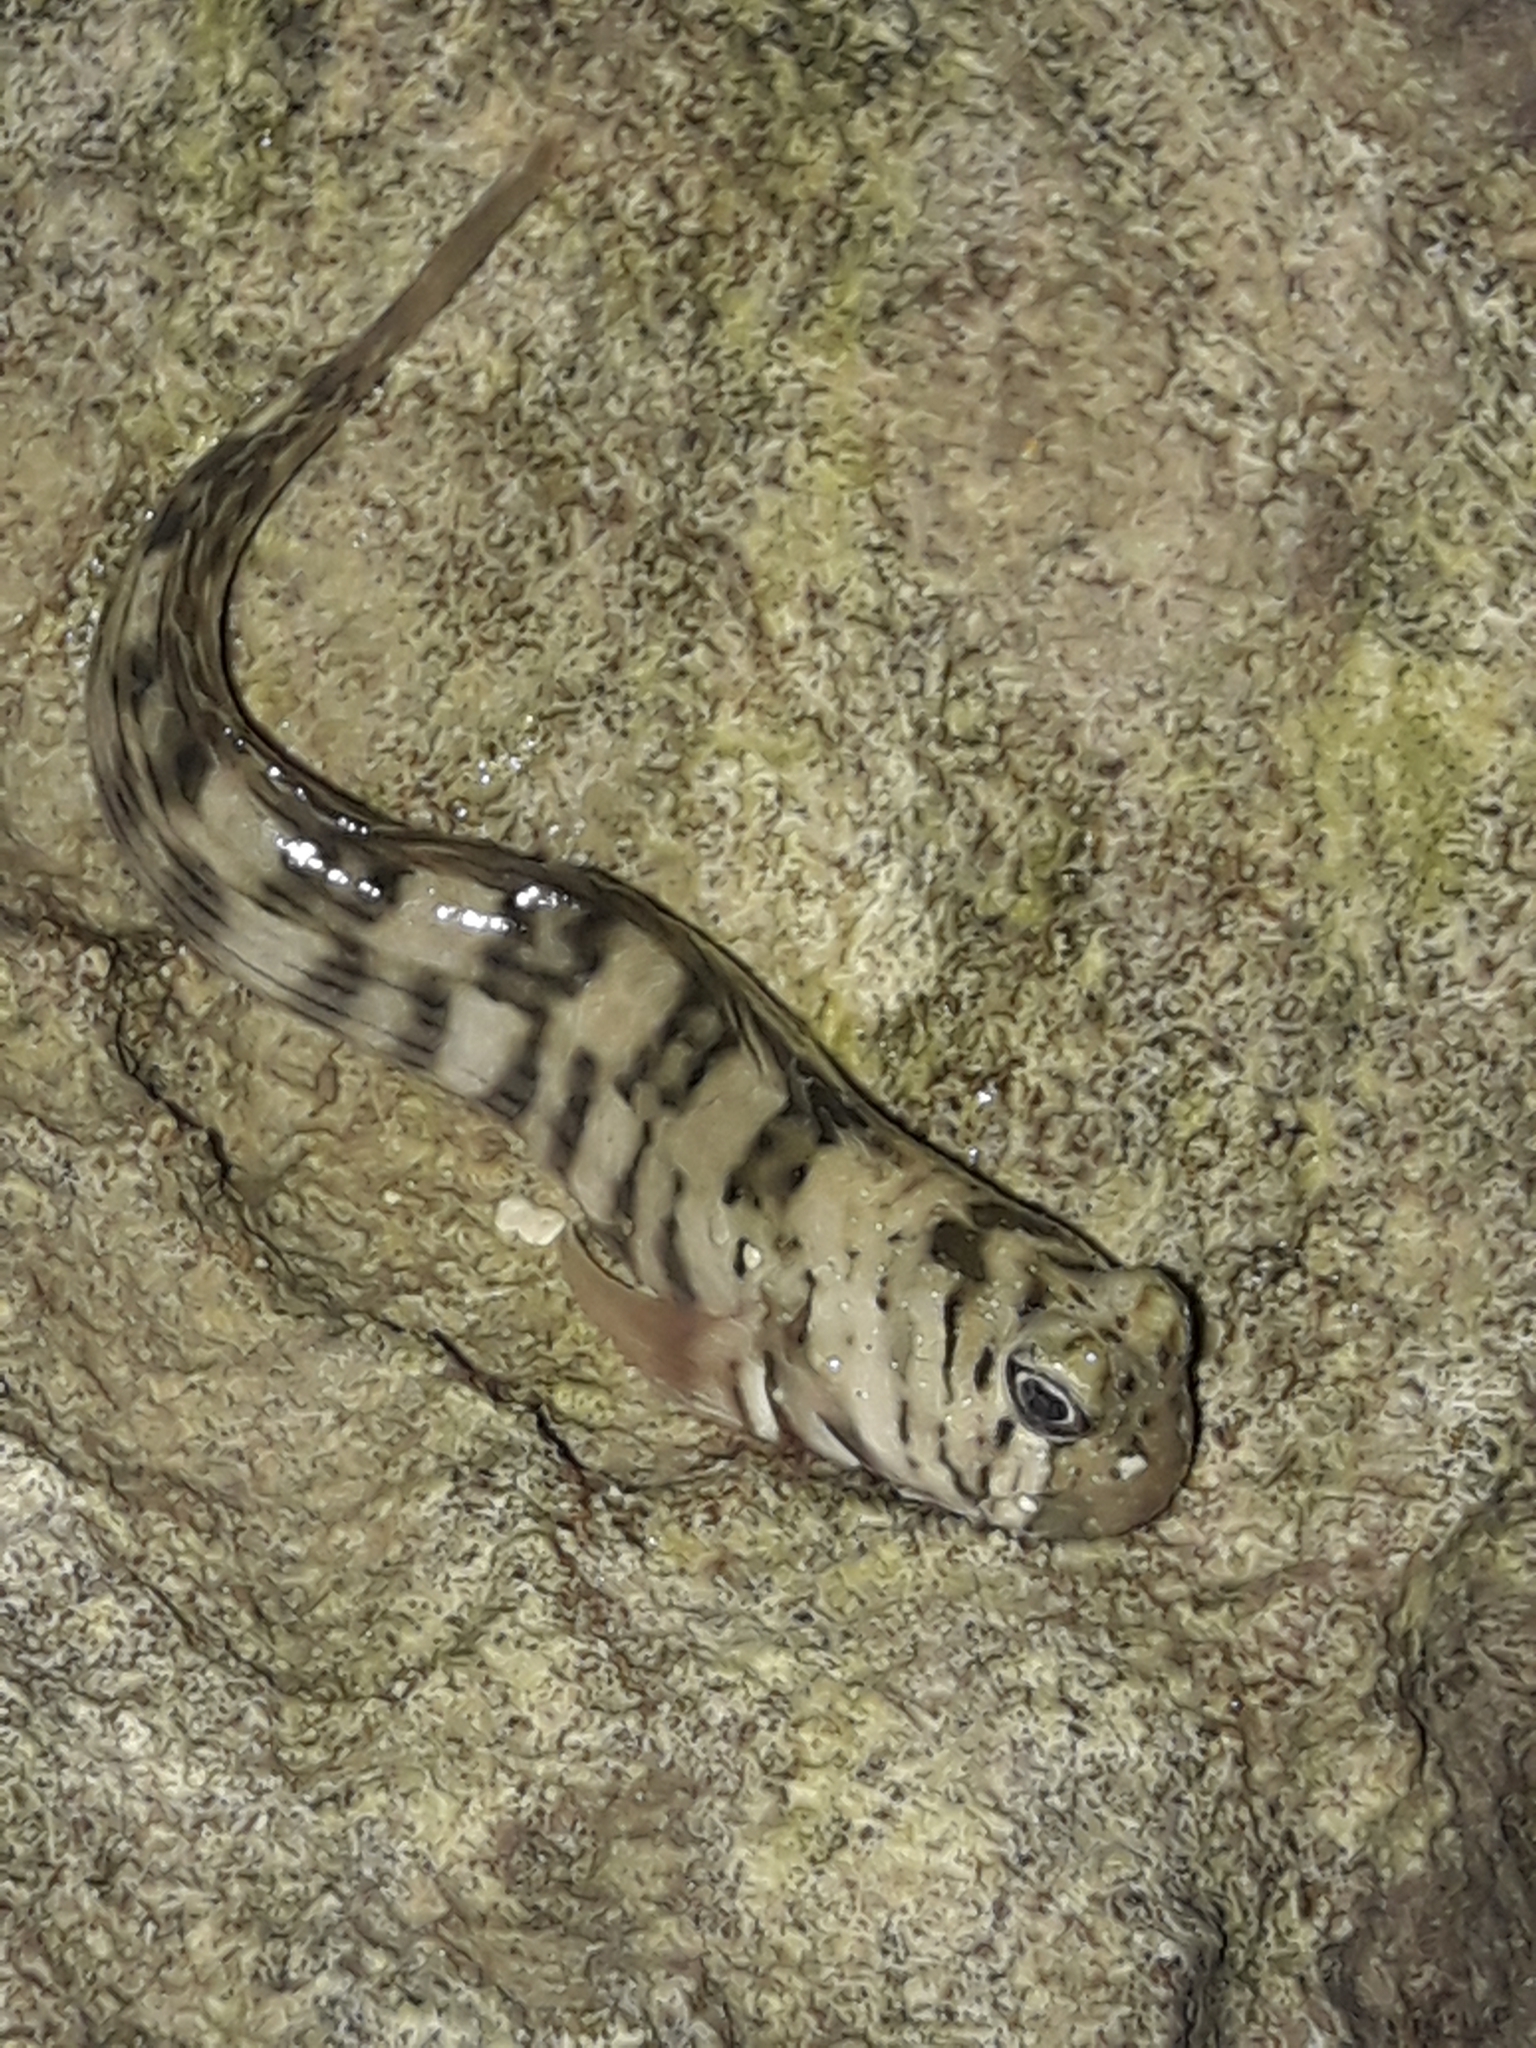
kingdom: Animalia
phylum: Chordata
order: Perciformes
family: Blenniidae
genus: Istiblennius
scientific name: Istiblennius lineatus
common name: Black-lined blenny
